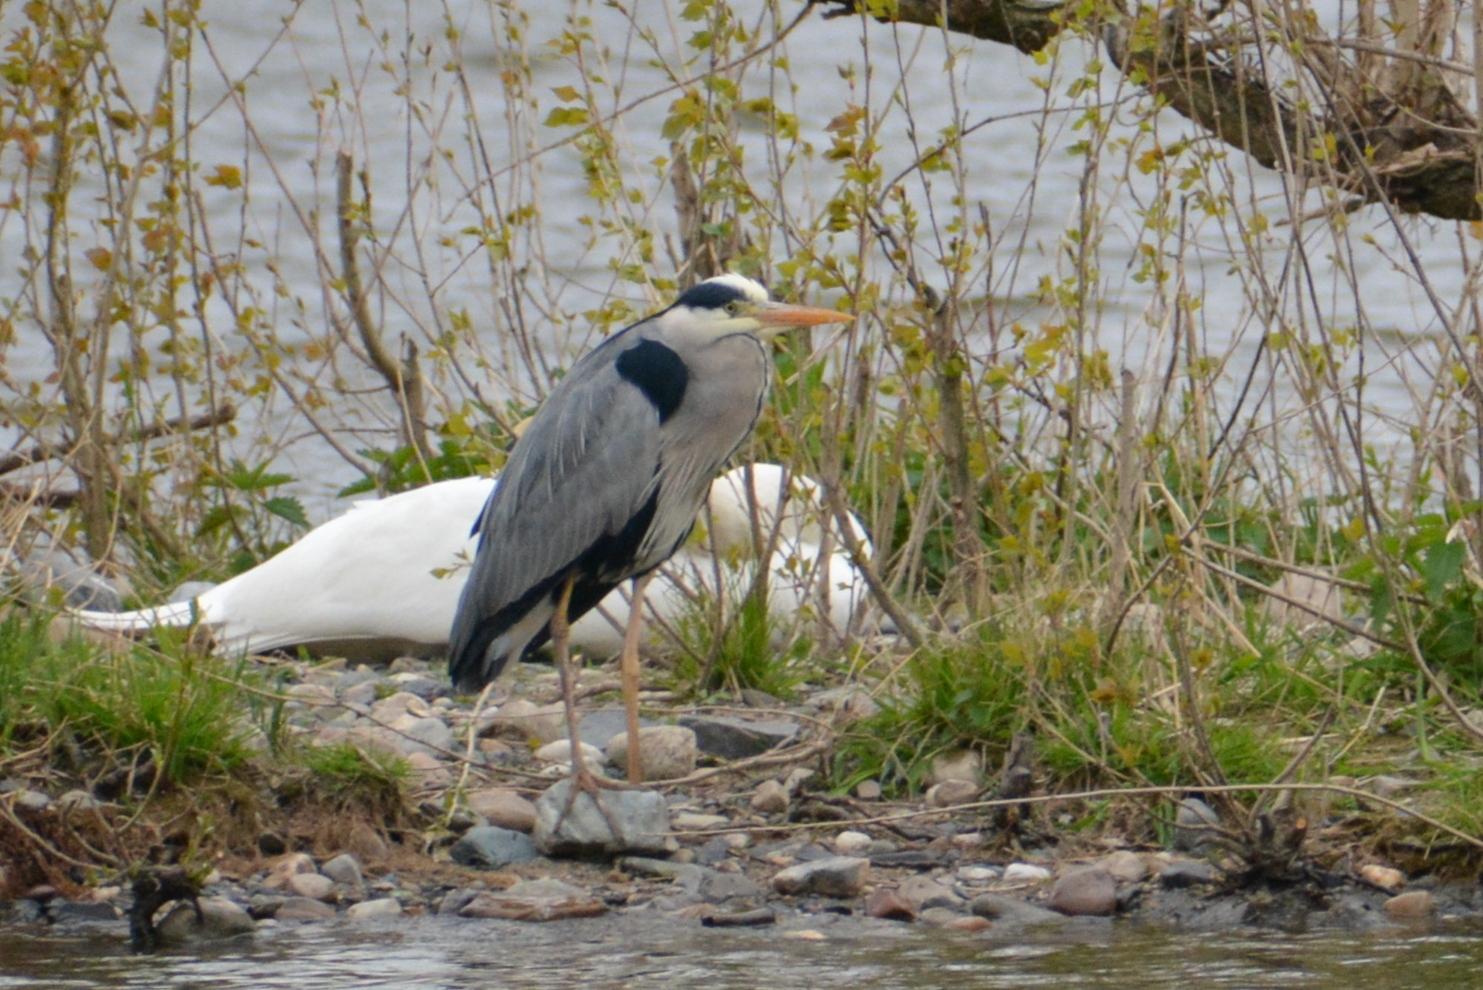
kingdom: Animalia
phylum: Chordata
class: Aves
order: Pelecaniformes
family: Ardeidae
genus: Ardea
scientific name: Ardea cinerea
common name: Grey heron
